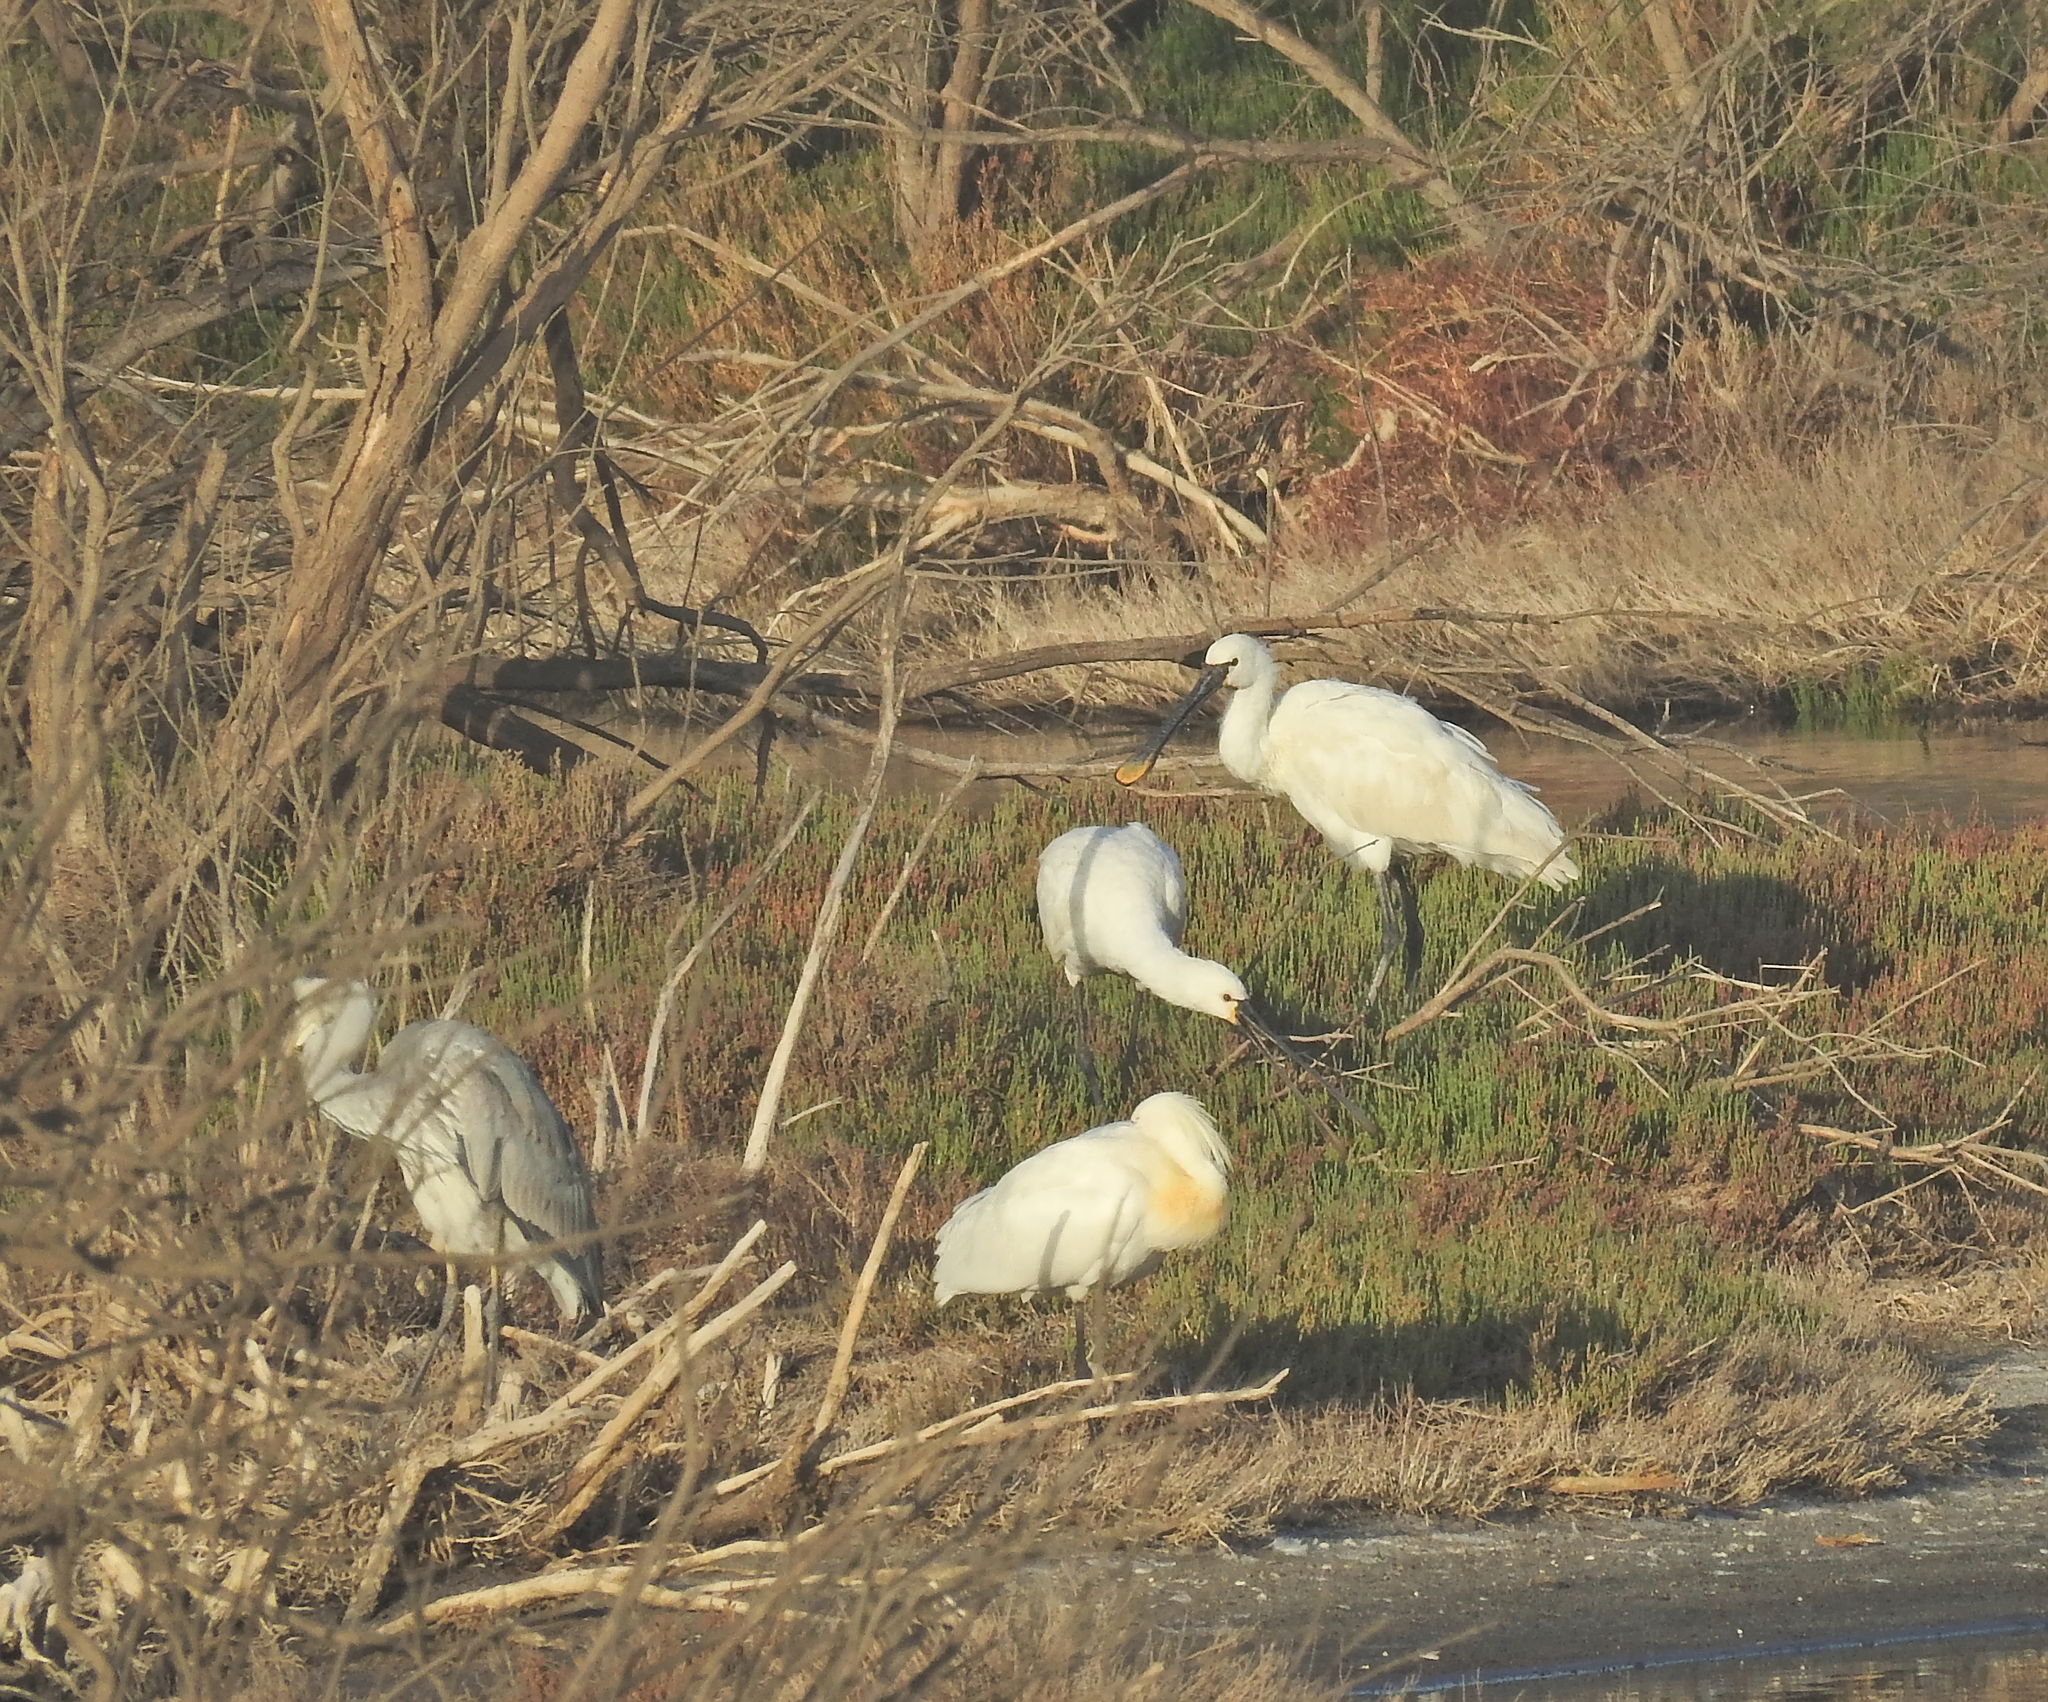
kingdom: Animalia
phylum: Chordata
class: Aves
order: Pelecaniformes
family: Threskiornithidae
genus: Platalea
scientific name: Platalea leucorodia
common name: Eurasian spoonbill
